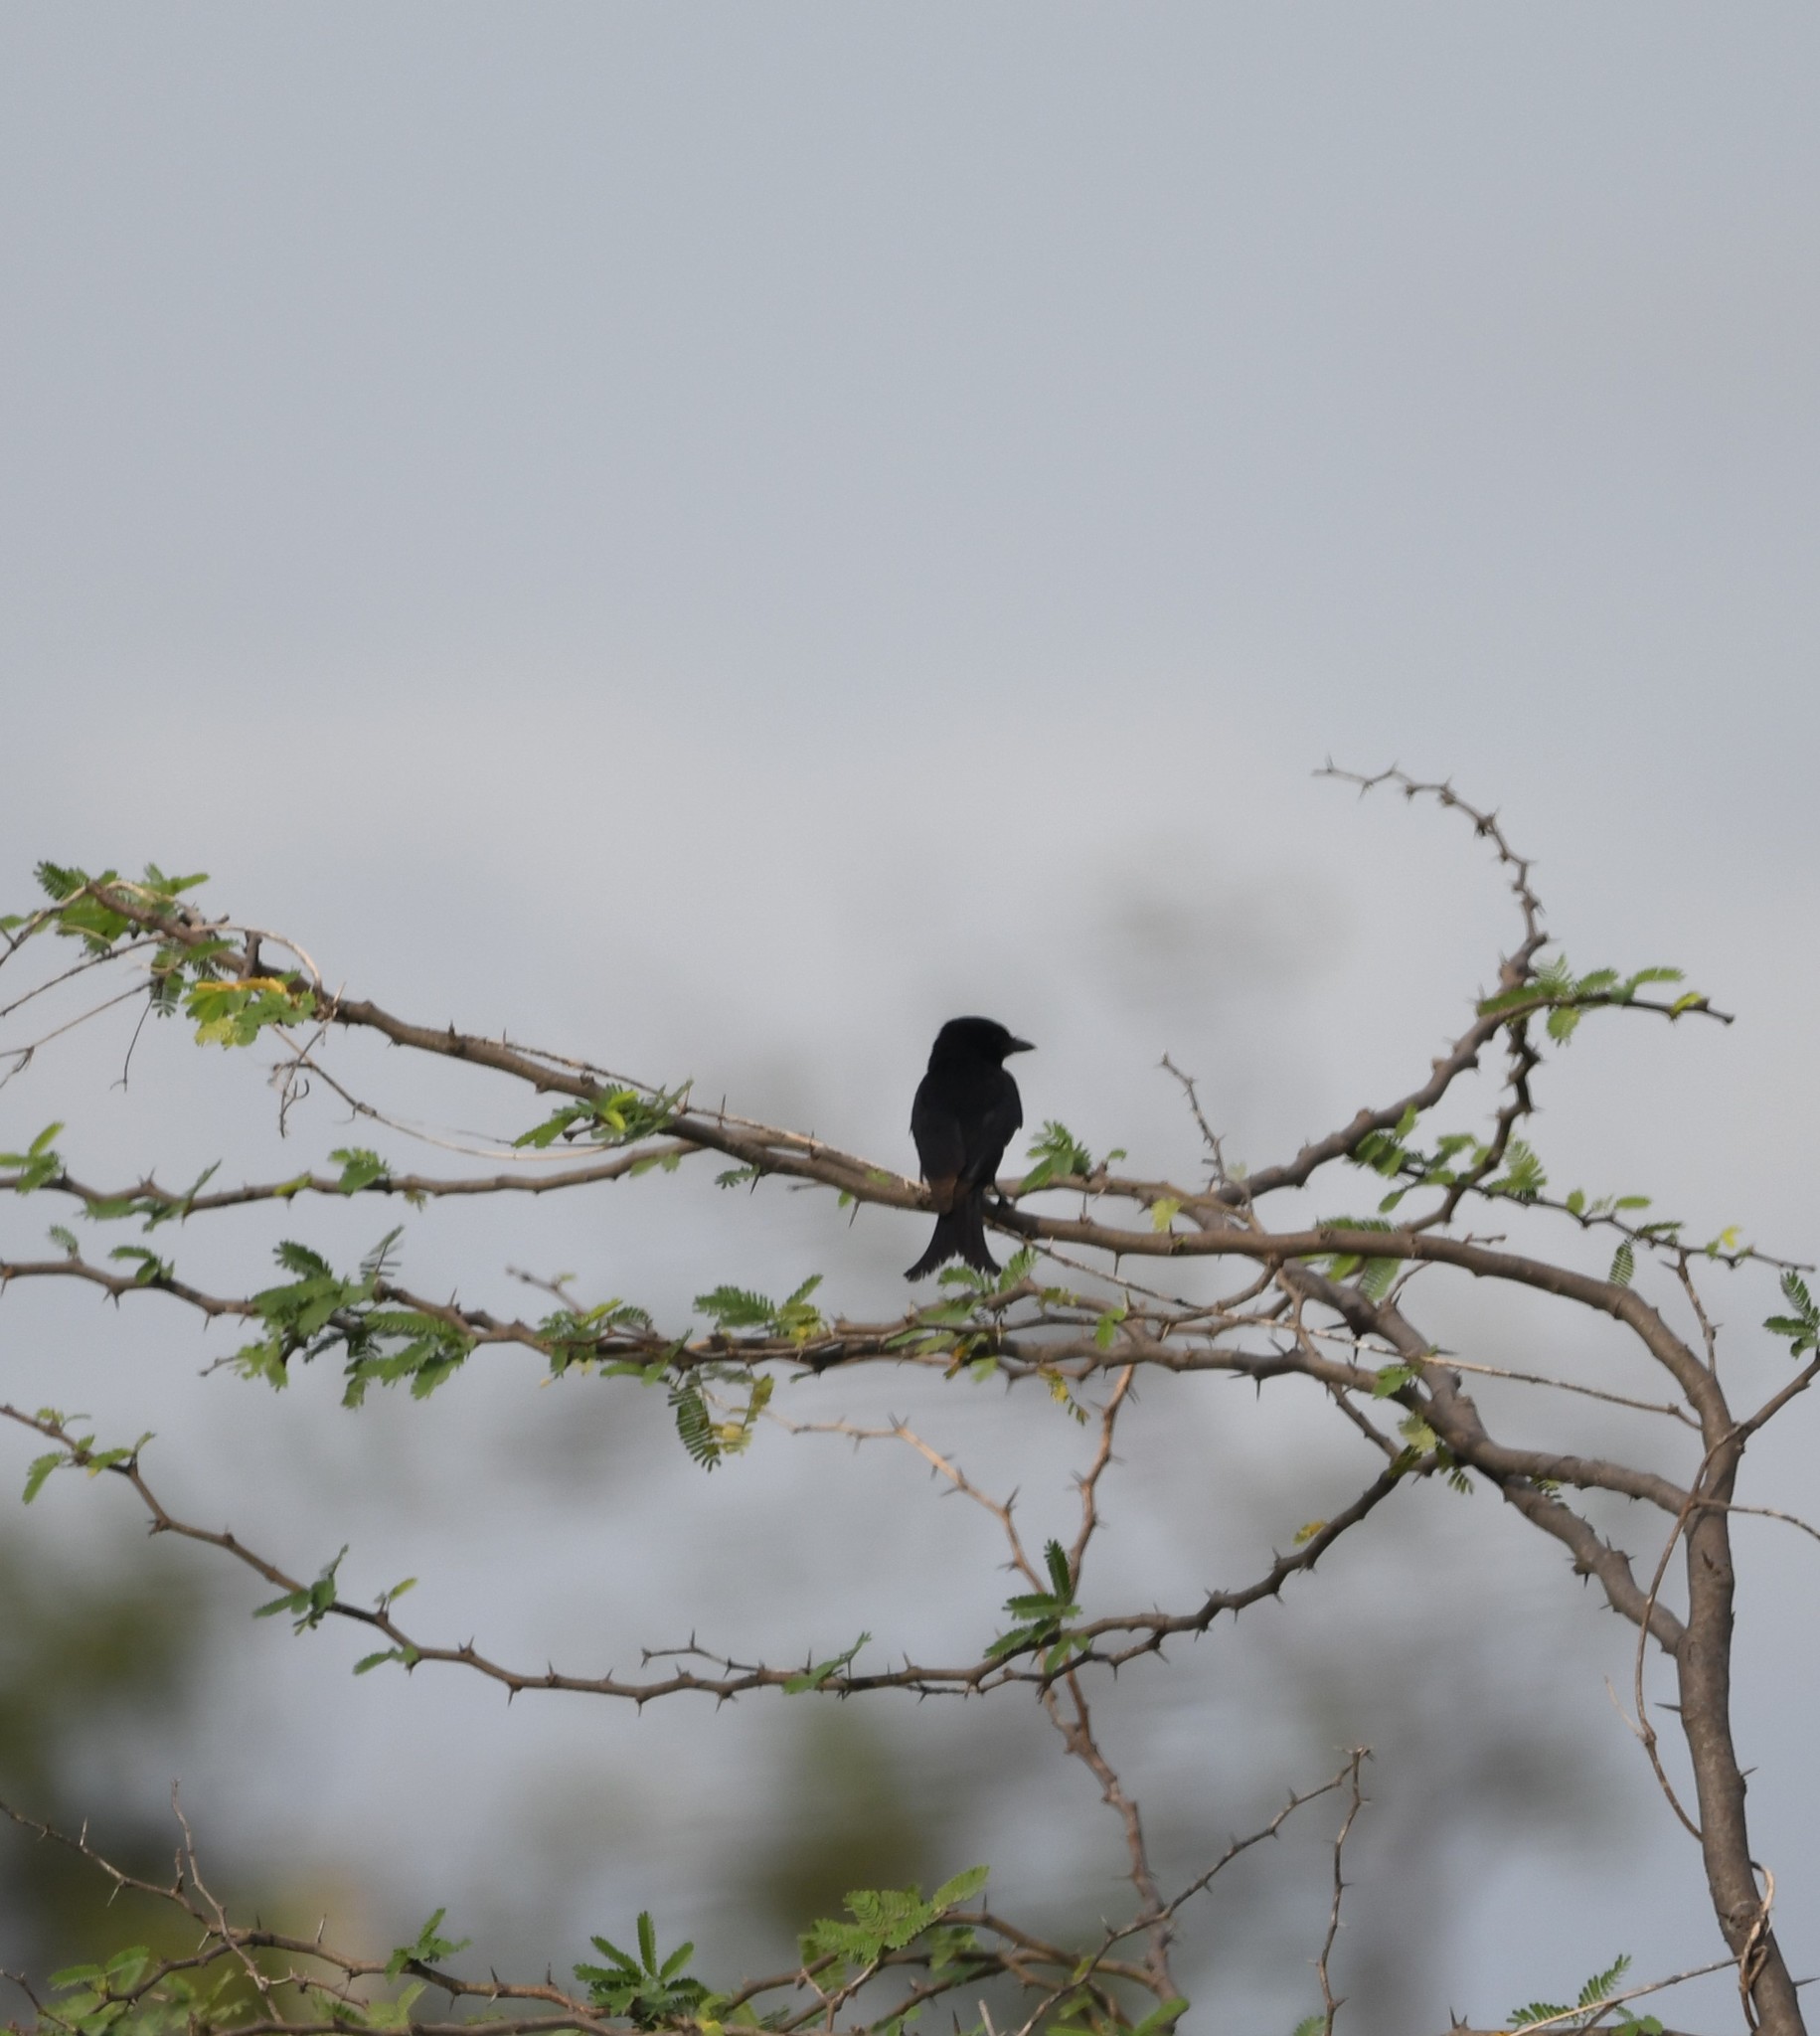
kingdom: Animalia
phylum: Chordata
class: Aves
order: Passeriformes
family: Dicruridae
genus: Dicrurus
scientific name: Dicrurus macrocercus
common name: Black drongo
